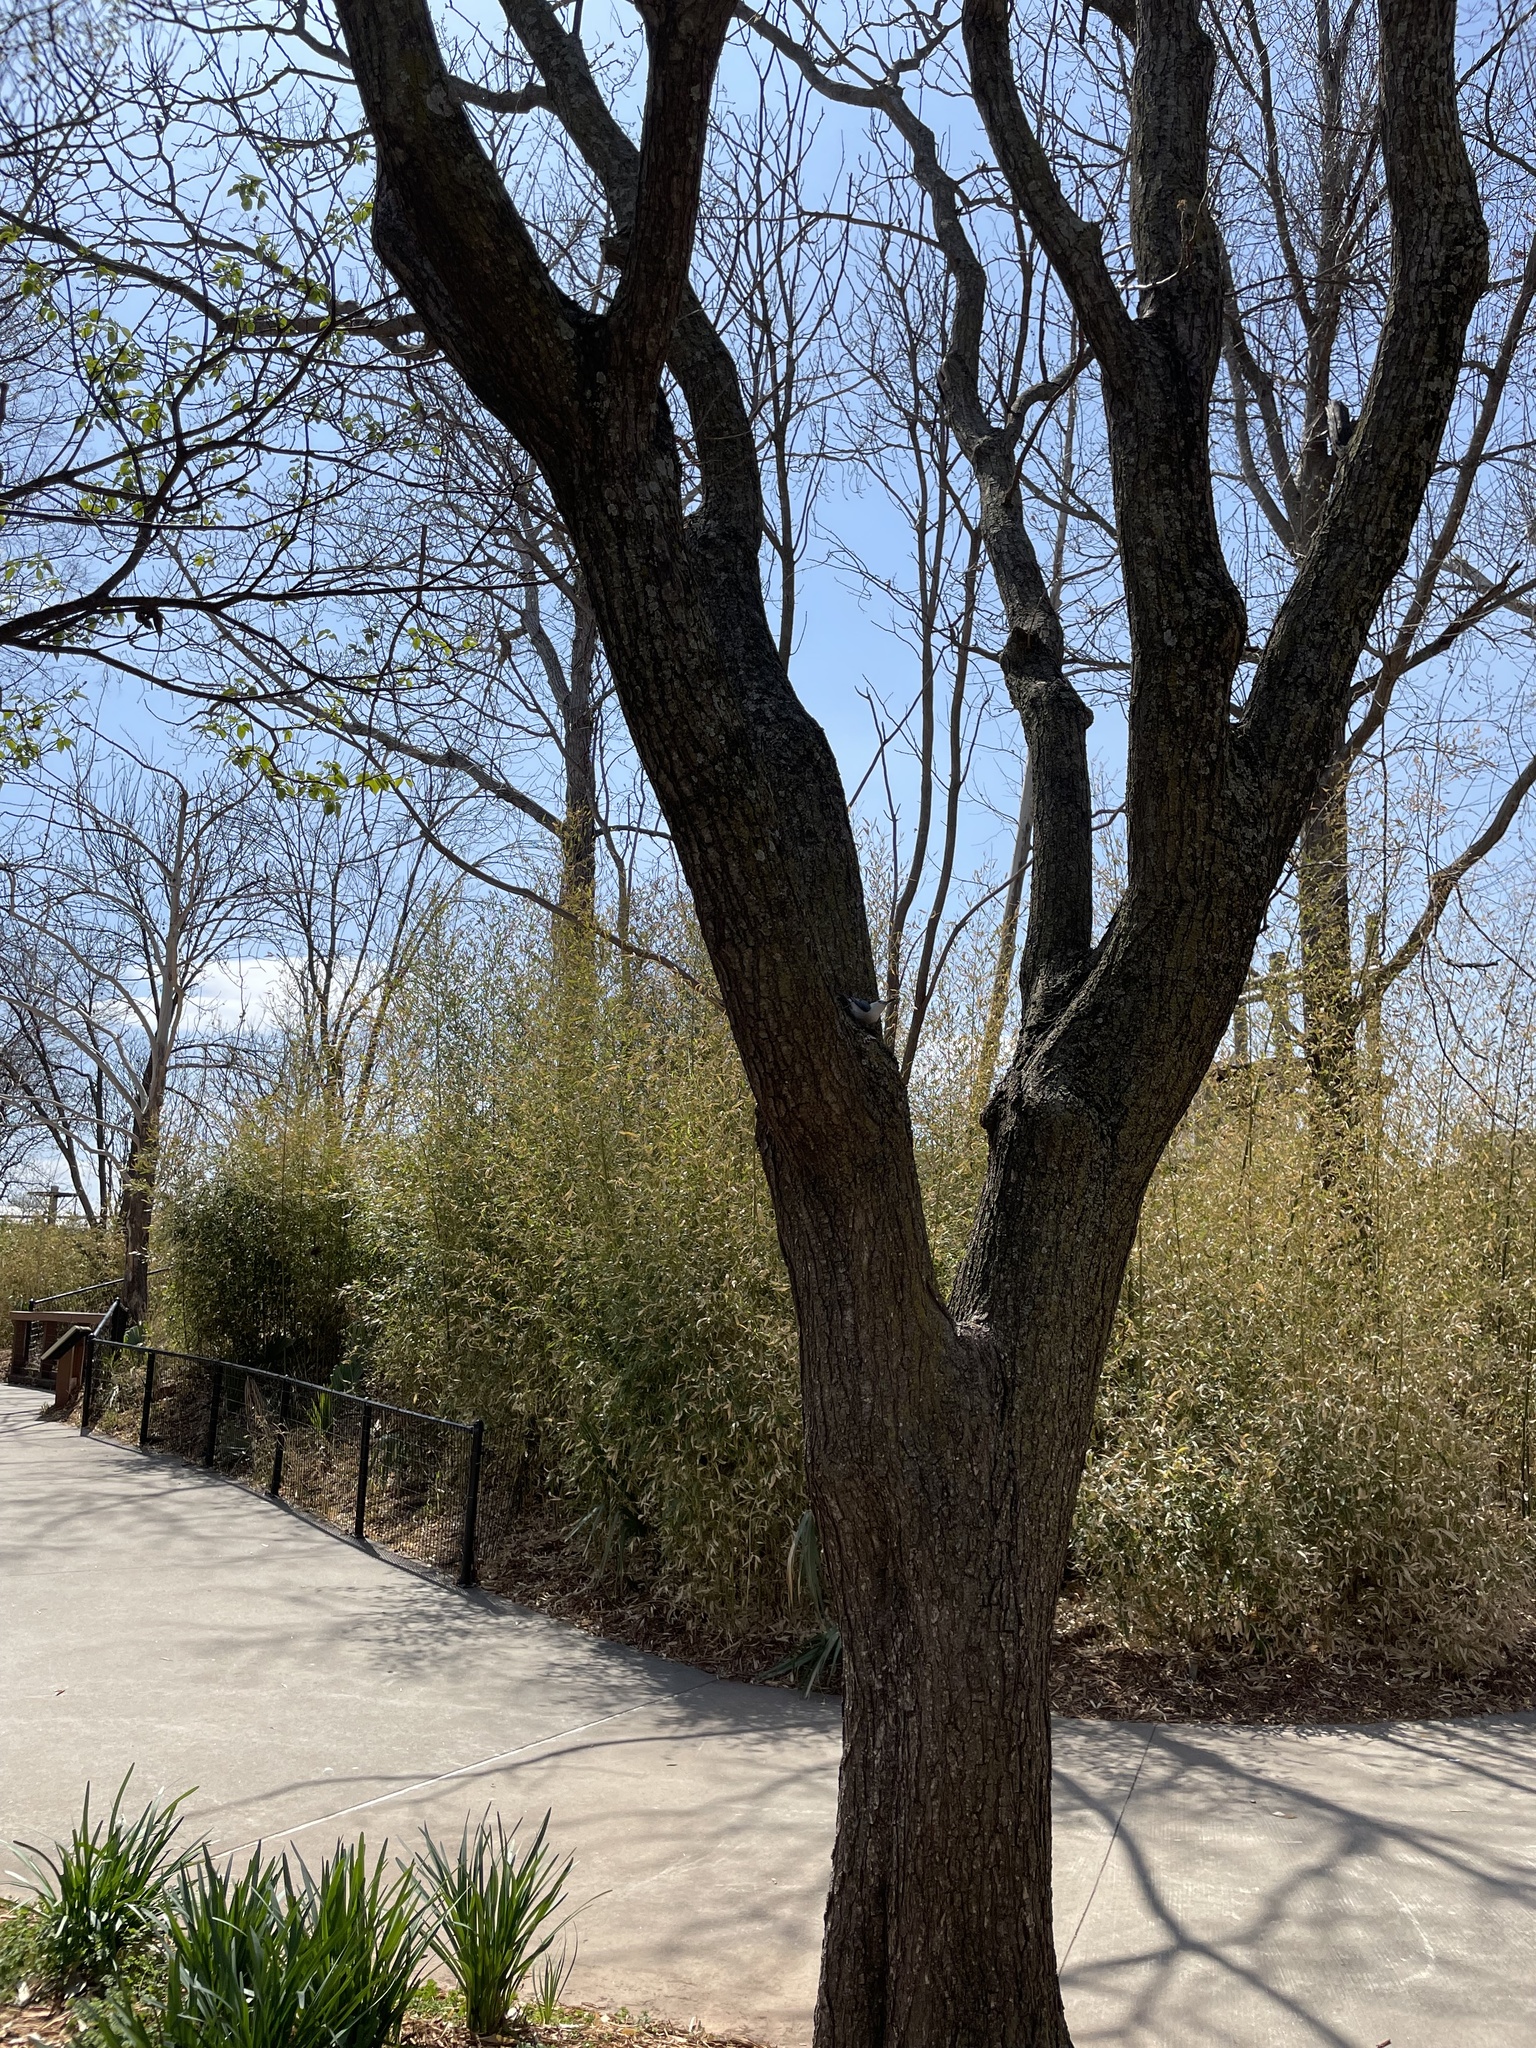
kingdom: Animalia
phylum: Chordata
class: Aves
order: Passeriformes
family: Sittidae
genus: Sitta
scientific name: Sitta carolinensis
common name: White-breasted nuthatch
